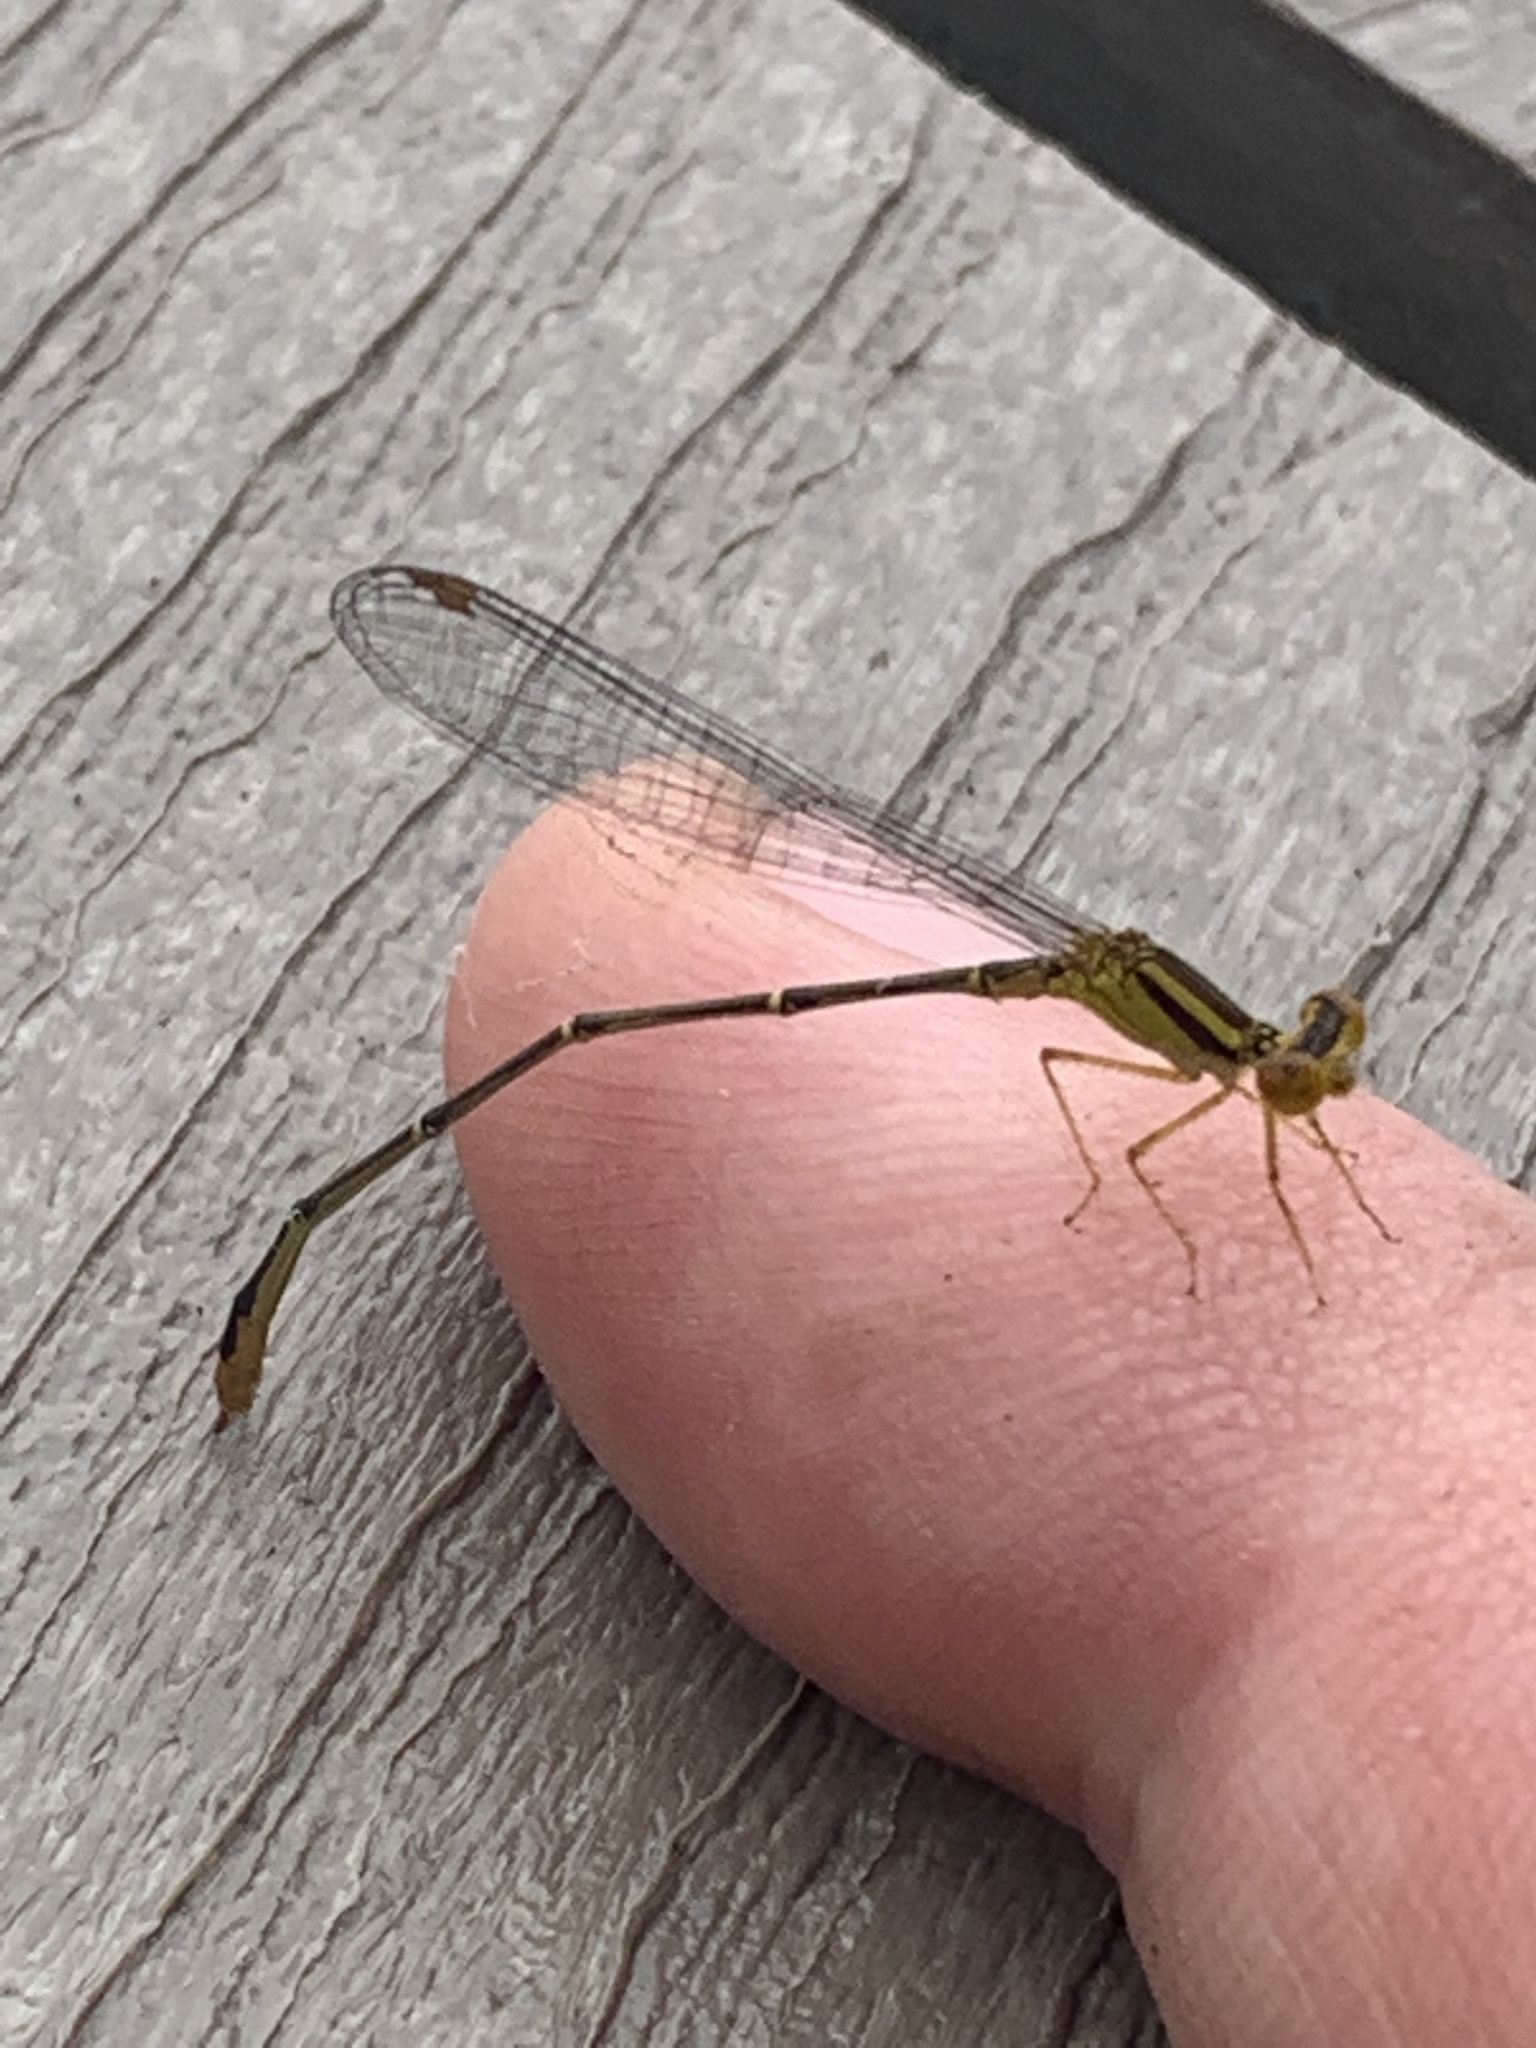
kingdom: Animalia
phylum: Arthropoda
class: Insecta
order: Odonata
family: Coenagrionidae
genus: Enallagma
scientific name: Enallagma signatum
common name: Orange bluet
